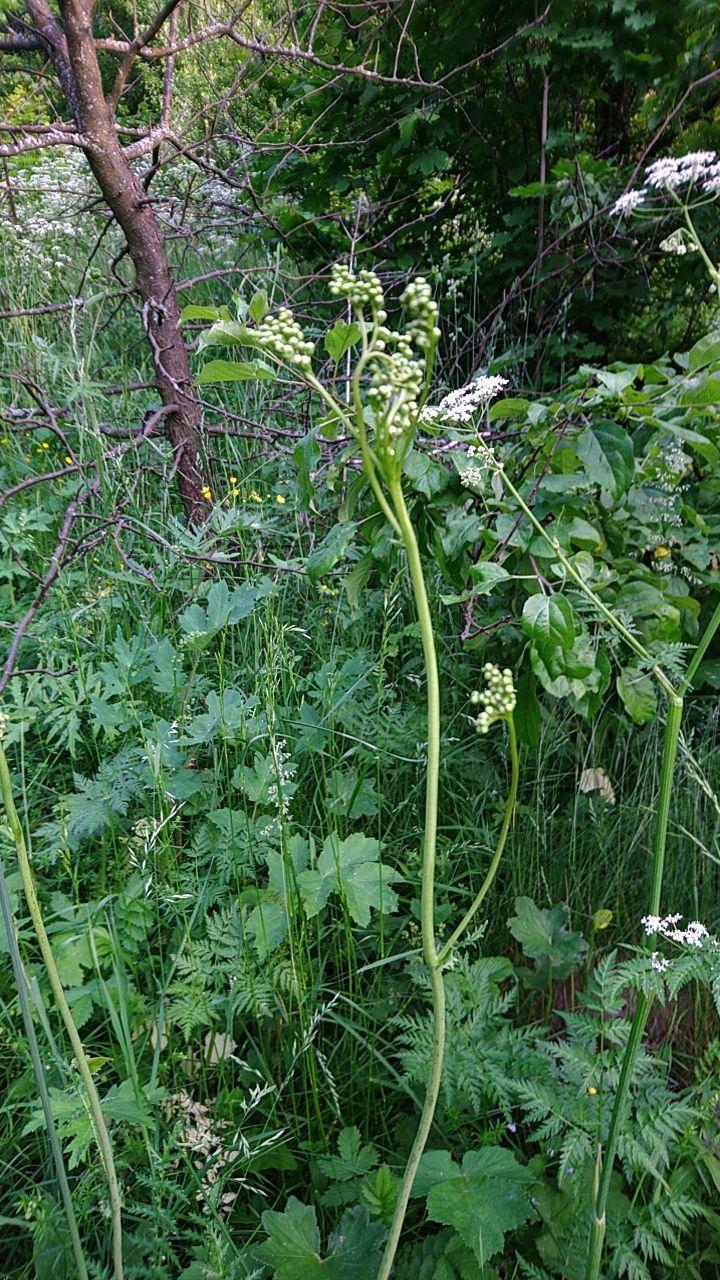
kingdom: Plantae
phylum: Tracheophyta
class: Magnoliopsida
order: Rosales
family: Rosaceae
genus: Filipendula
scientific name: Filipendula vulgaris
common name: Dropwort
